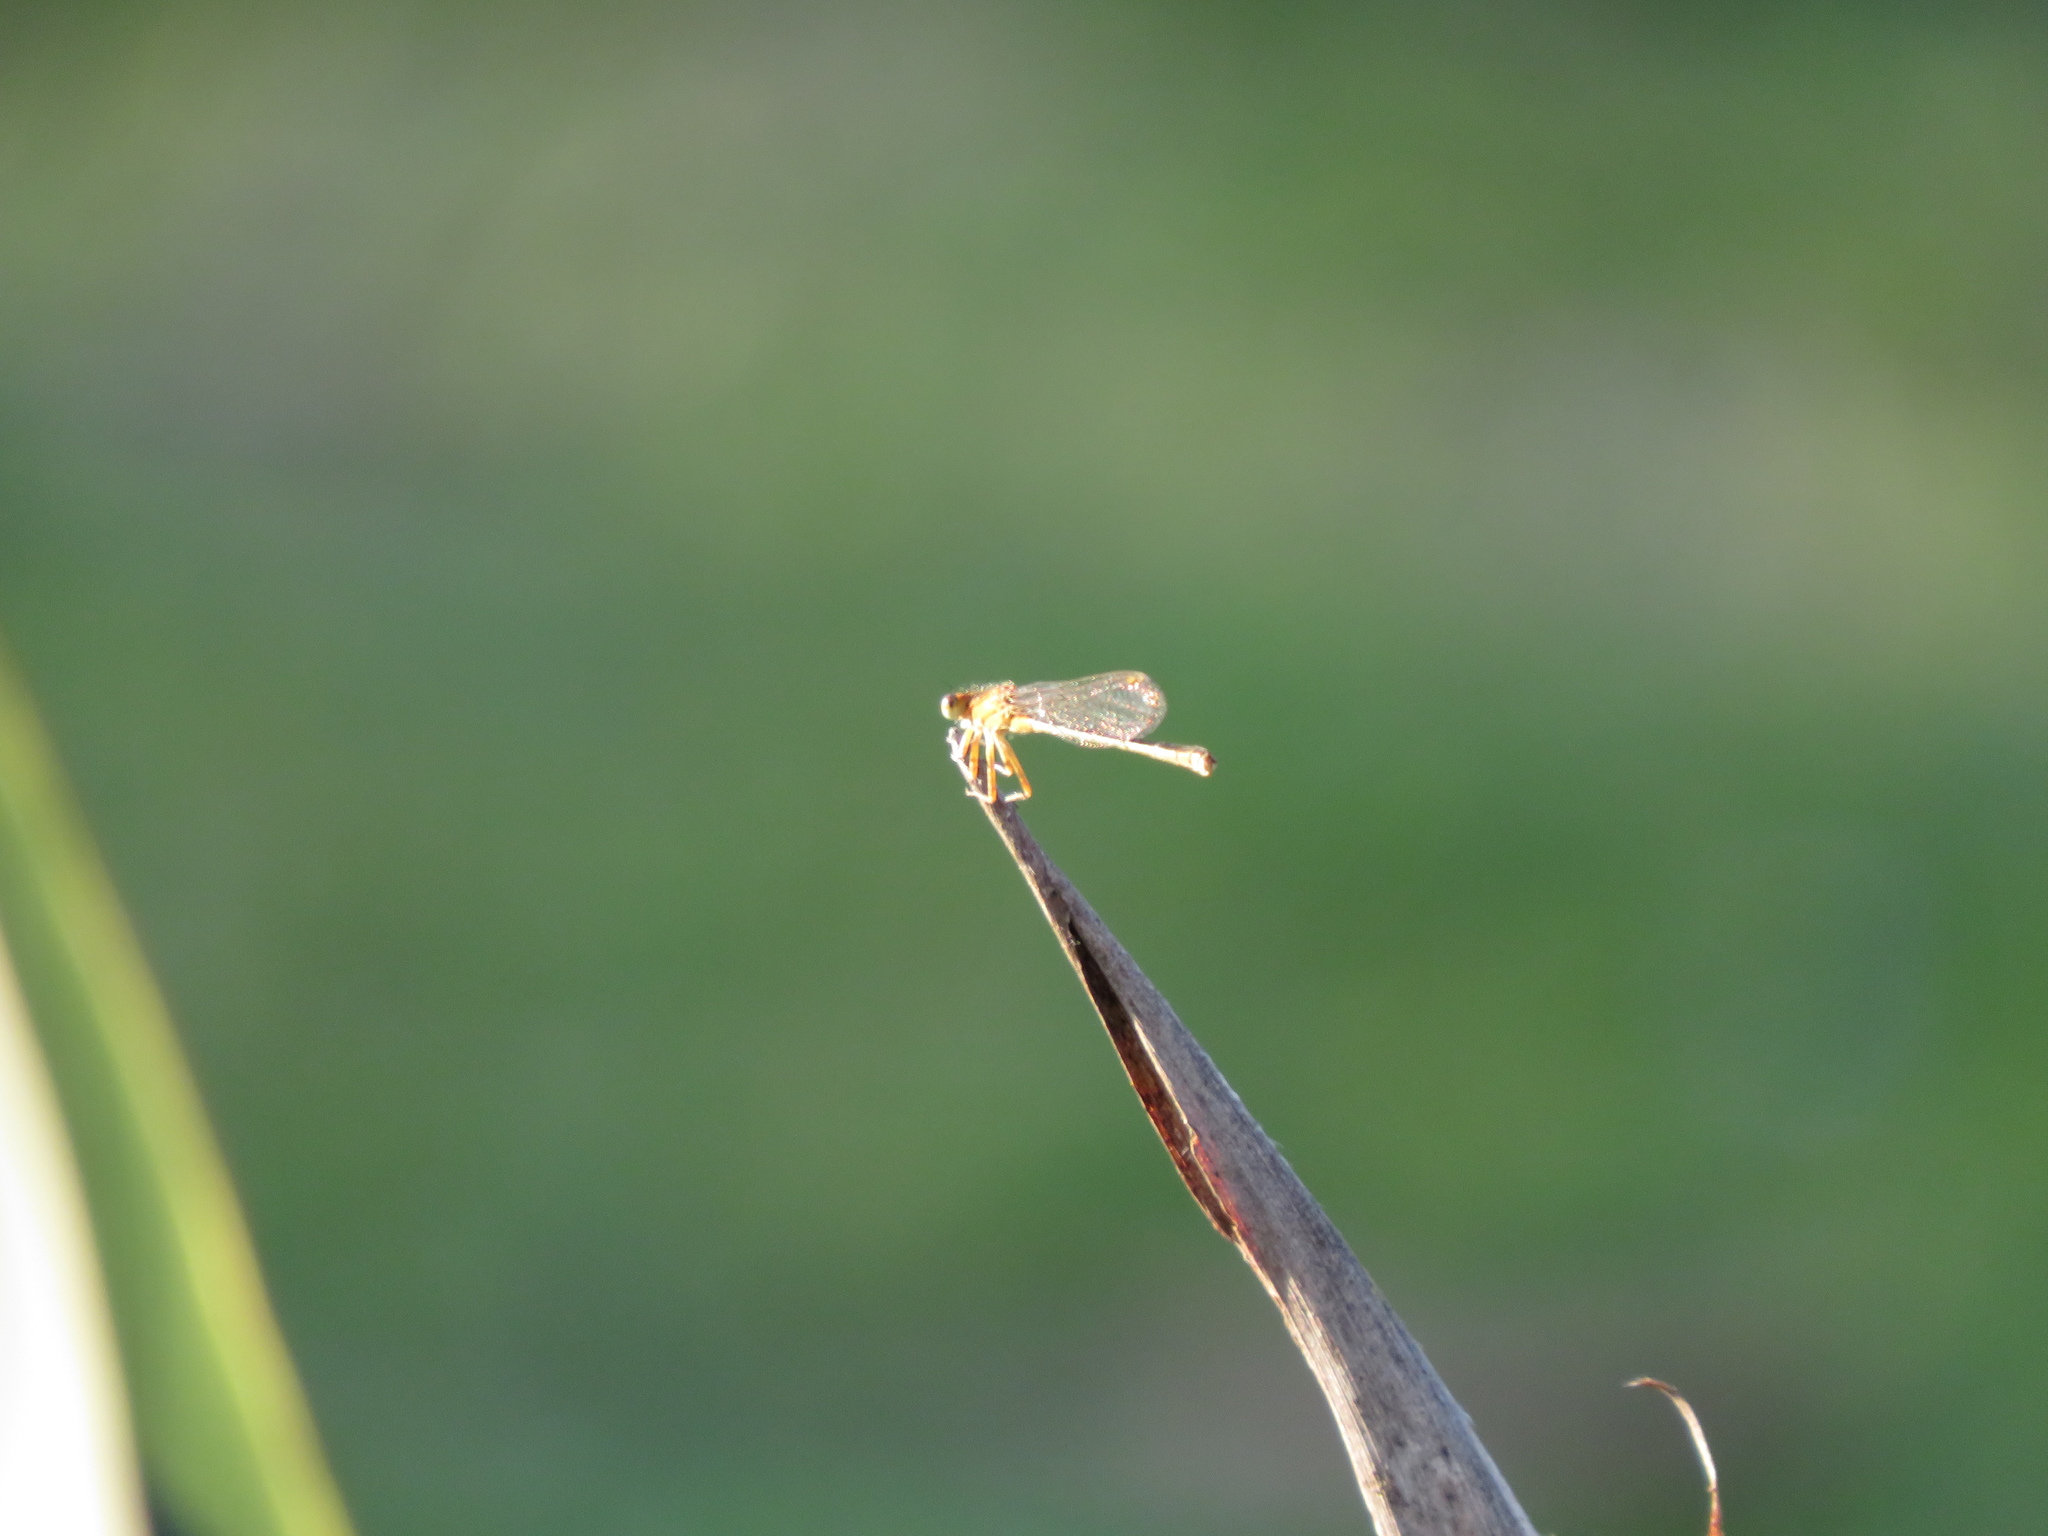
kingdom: Animalia
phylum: Arthropoda
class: Insecta
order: Odonata
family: Coenagrionidae
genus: Ischnura
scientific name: Ischnura fluviatilis
